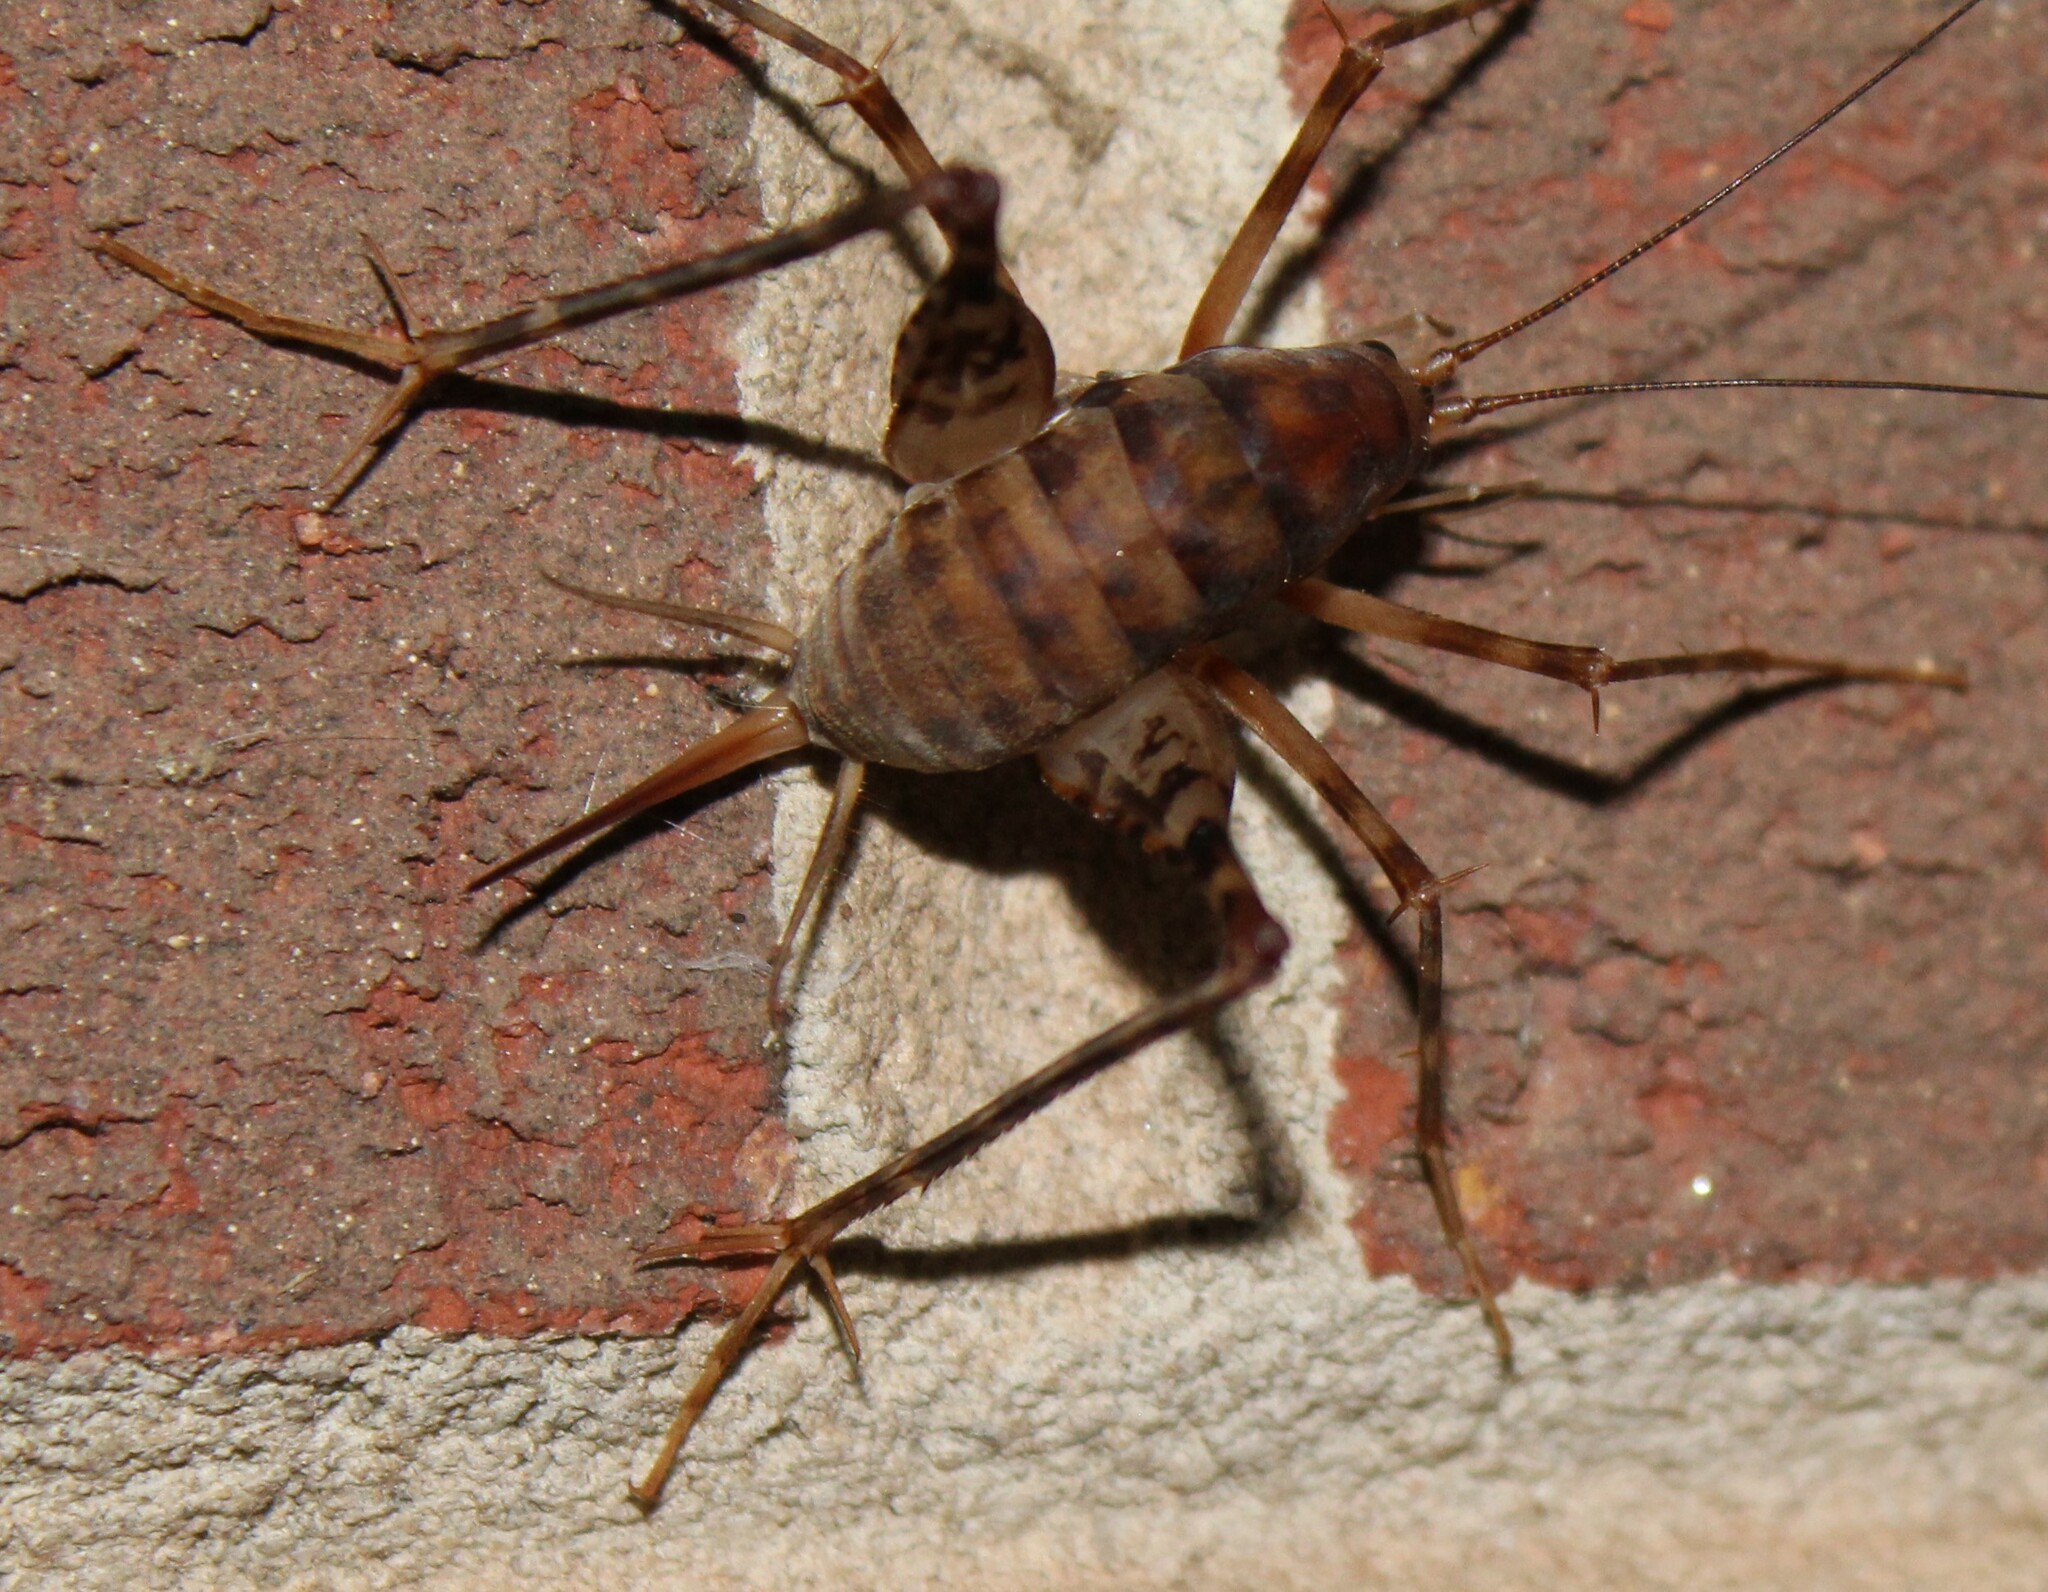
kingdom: Animalia
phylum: Arthropoda
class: Insecta
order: Orthoptera
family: Rhaphidophoridae
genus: Tachycines
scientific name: Tachycines asynamorus
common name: Greenhouse camel cricket
